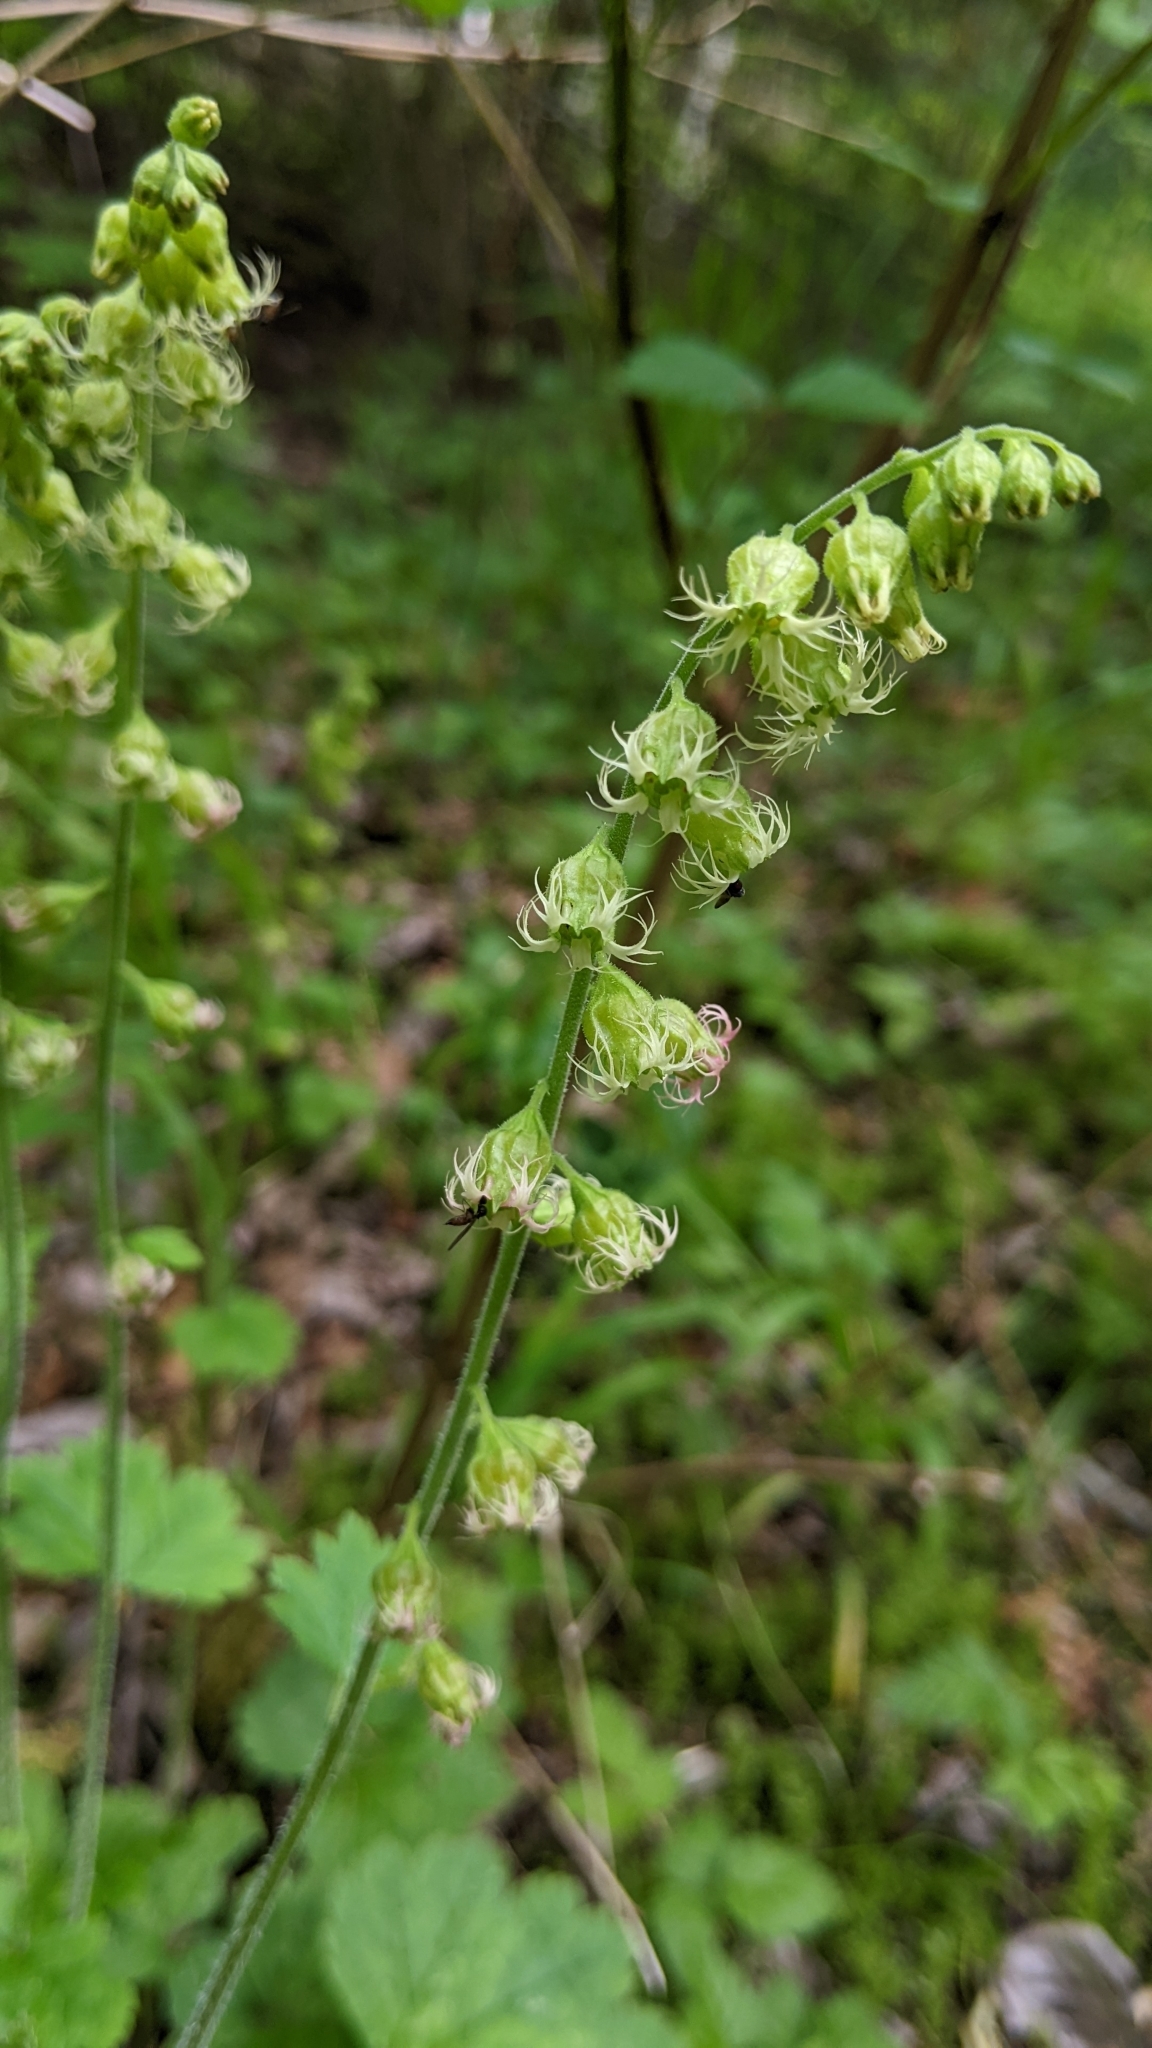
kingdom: Plantae
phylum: Tracheophyta
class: Magnoliopsida
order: Saxifragales
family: Saxifragaceae
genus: Tellima
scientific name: Tellima grandiflora
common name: Fringecups
